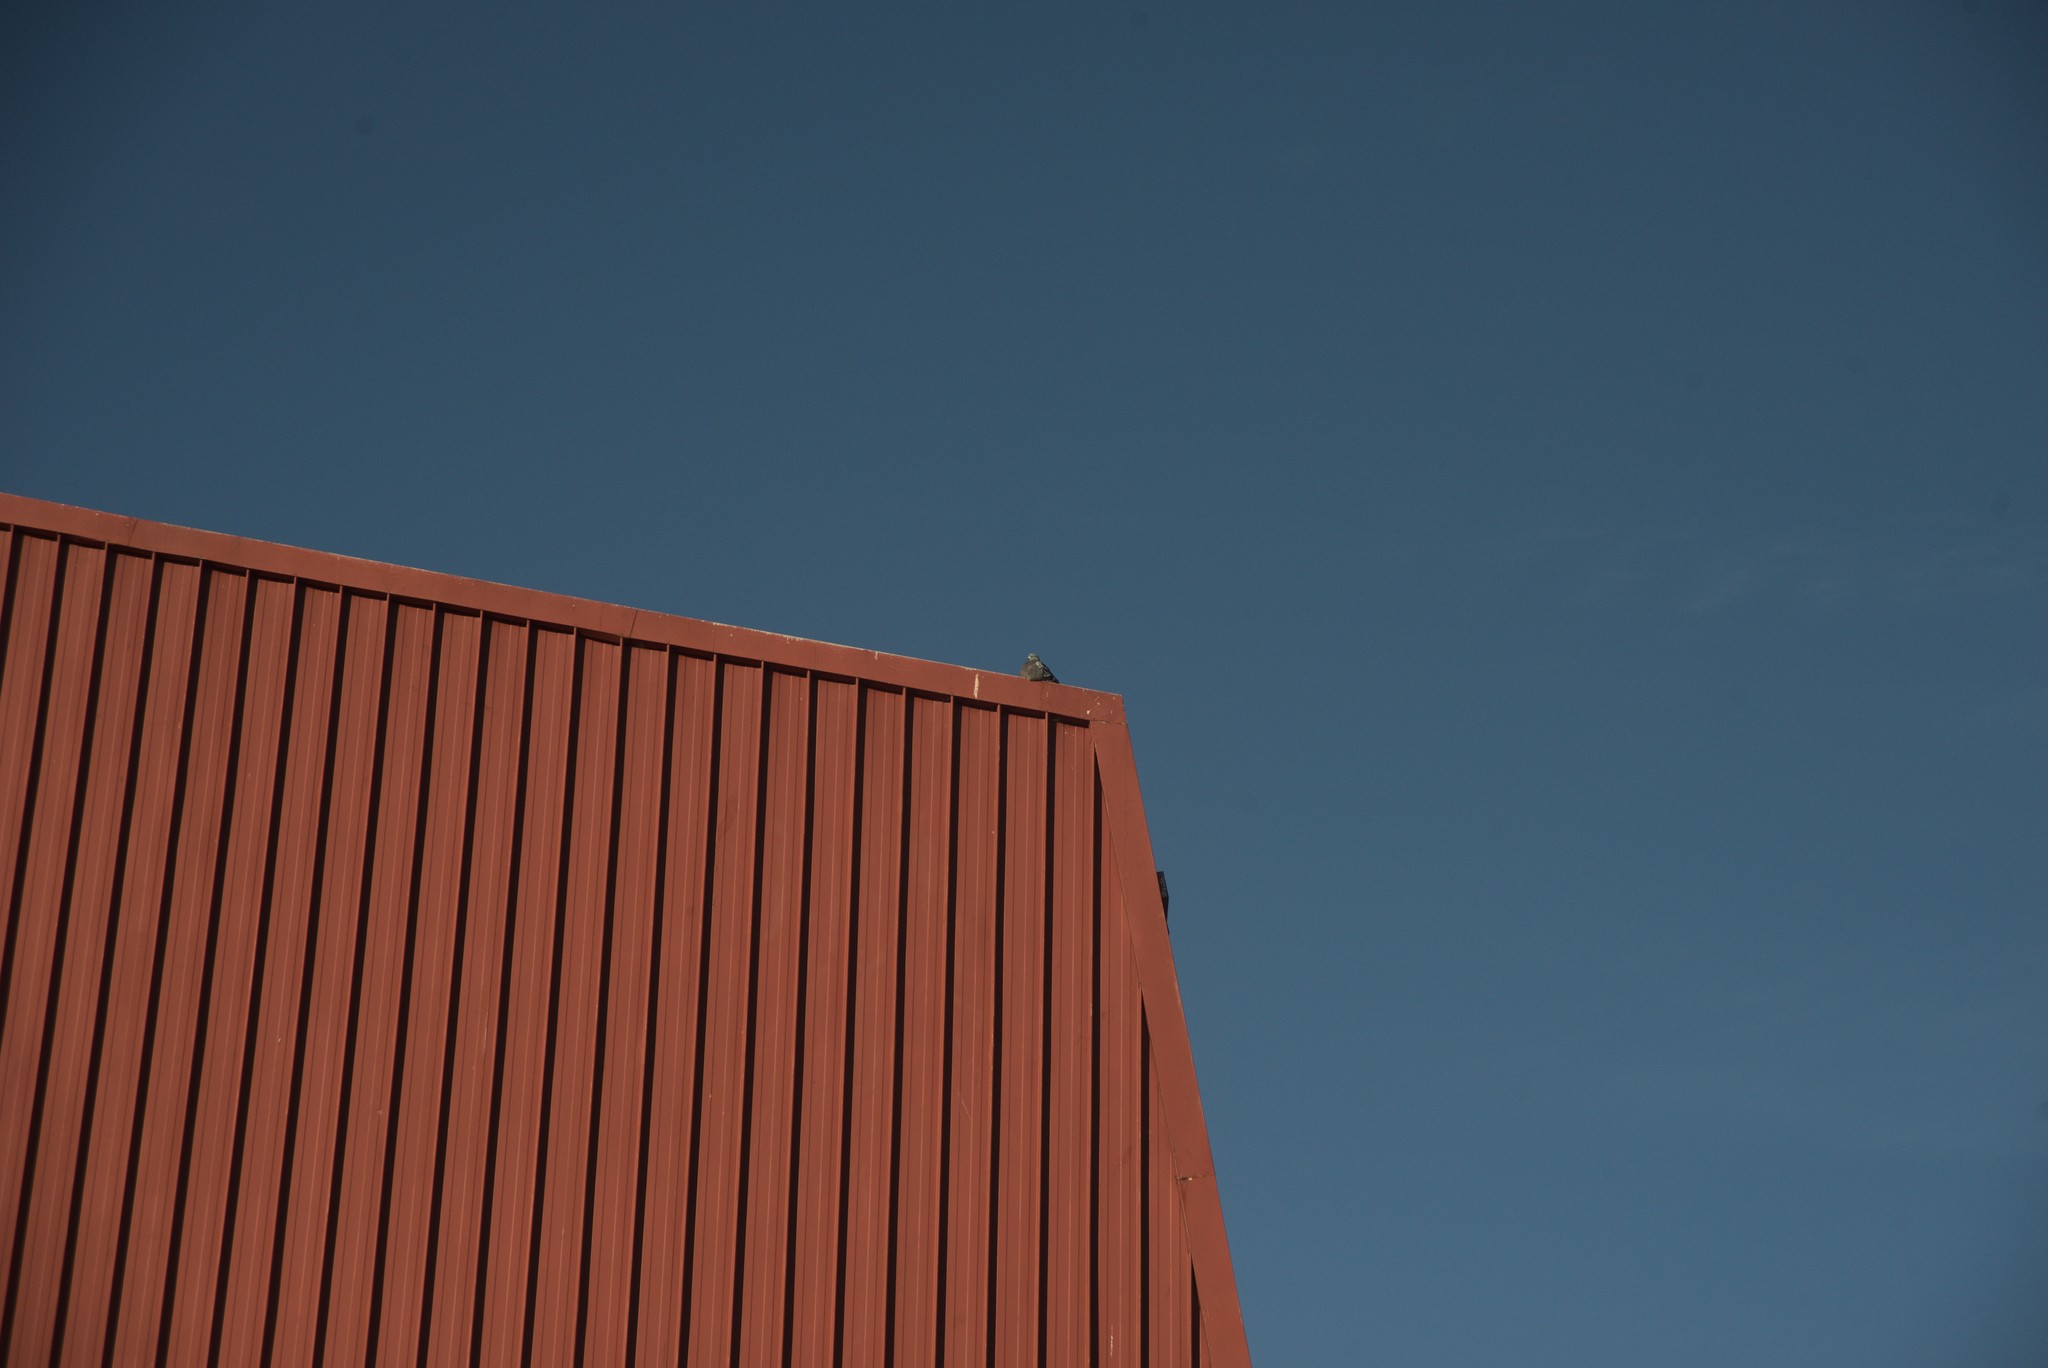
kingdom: Animalia
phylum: Chordata
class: Aves
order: Columbiformes
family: Columbidae
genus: Columba
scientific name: Columba livia
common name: Rock pigeon
